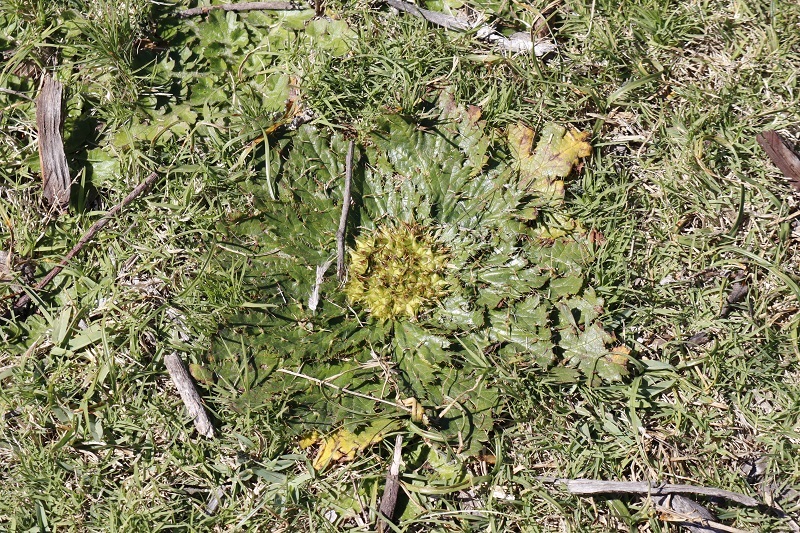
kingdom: Plantae
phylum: Tracheophyta
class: Magnoliopsida
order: Apiales
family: Apiaceae
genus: Arctopus
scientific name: Arctopus echinatus
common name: Platdoring
